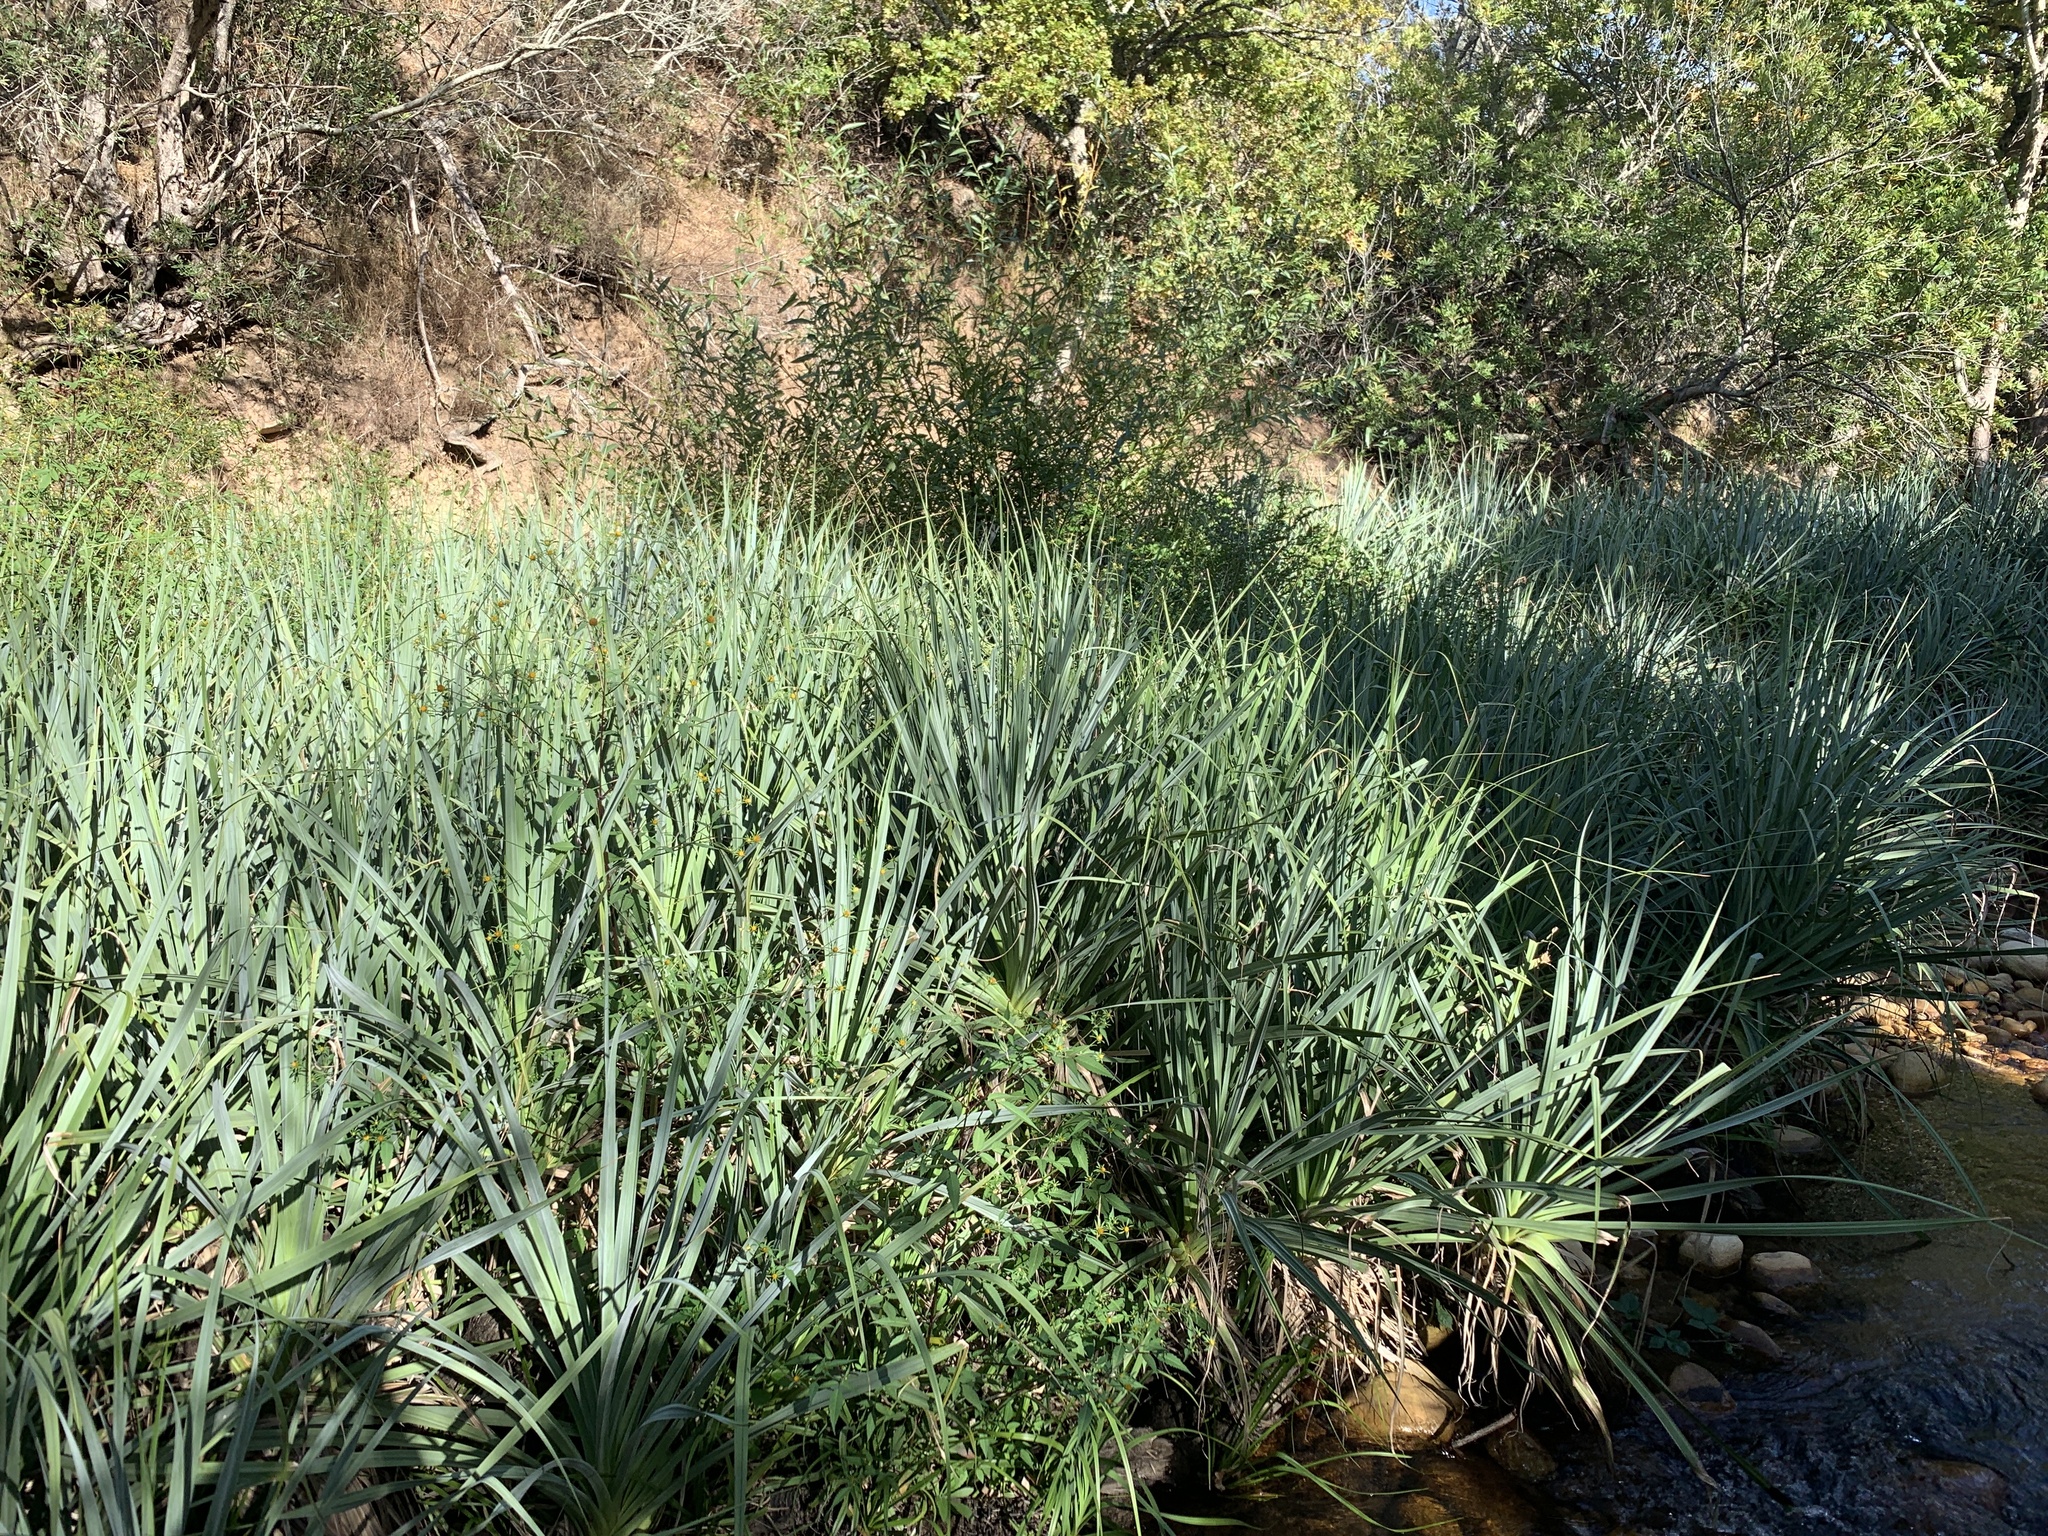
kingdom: Plantae
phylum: Tracheophyta
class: Liliopsida
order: Poales
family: Thurniaceae
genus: Prionium
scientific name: Prionium serratum
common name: Palmiet
